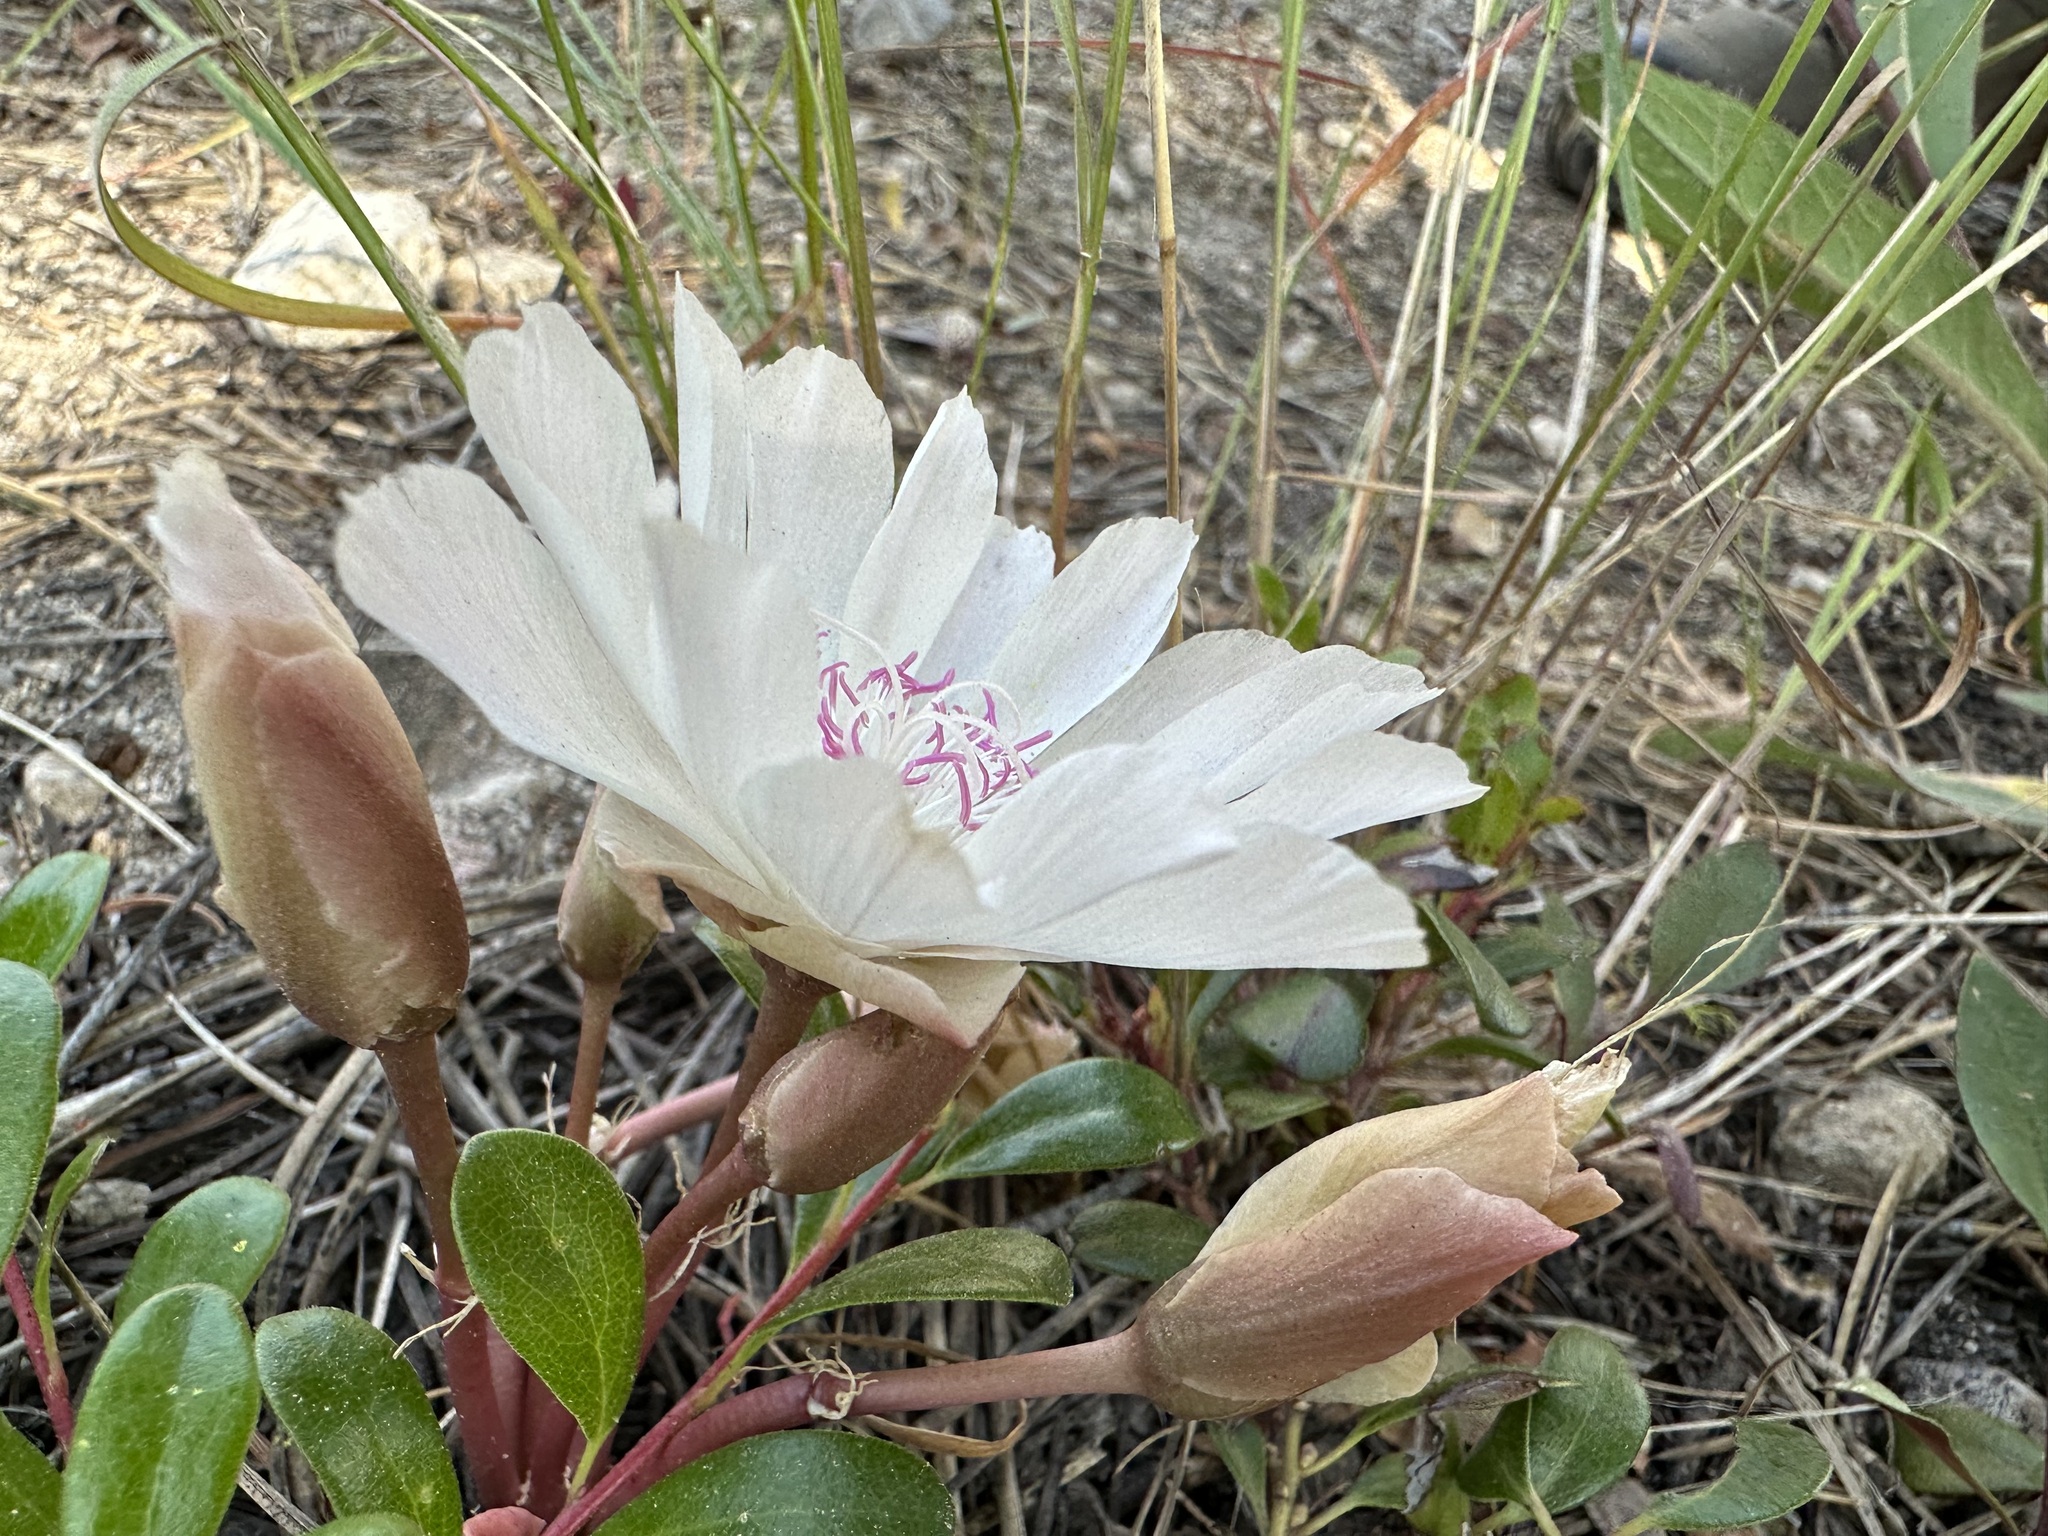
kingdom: Plantae
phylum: Tracheophyta
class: Magnoliopsida
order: Caryophyllales
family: Montiaceae
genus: Lewisia
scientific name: Lewisia rediviva
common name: Bitter-root
